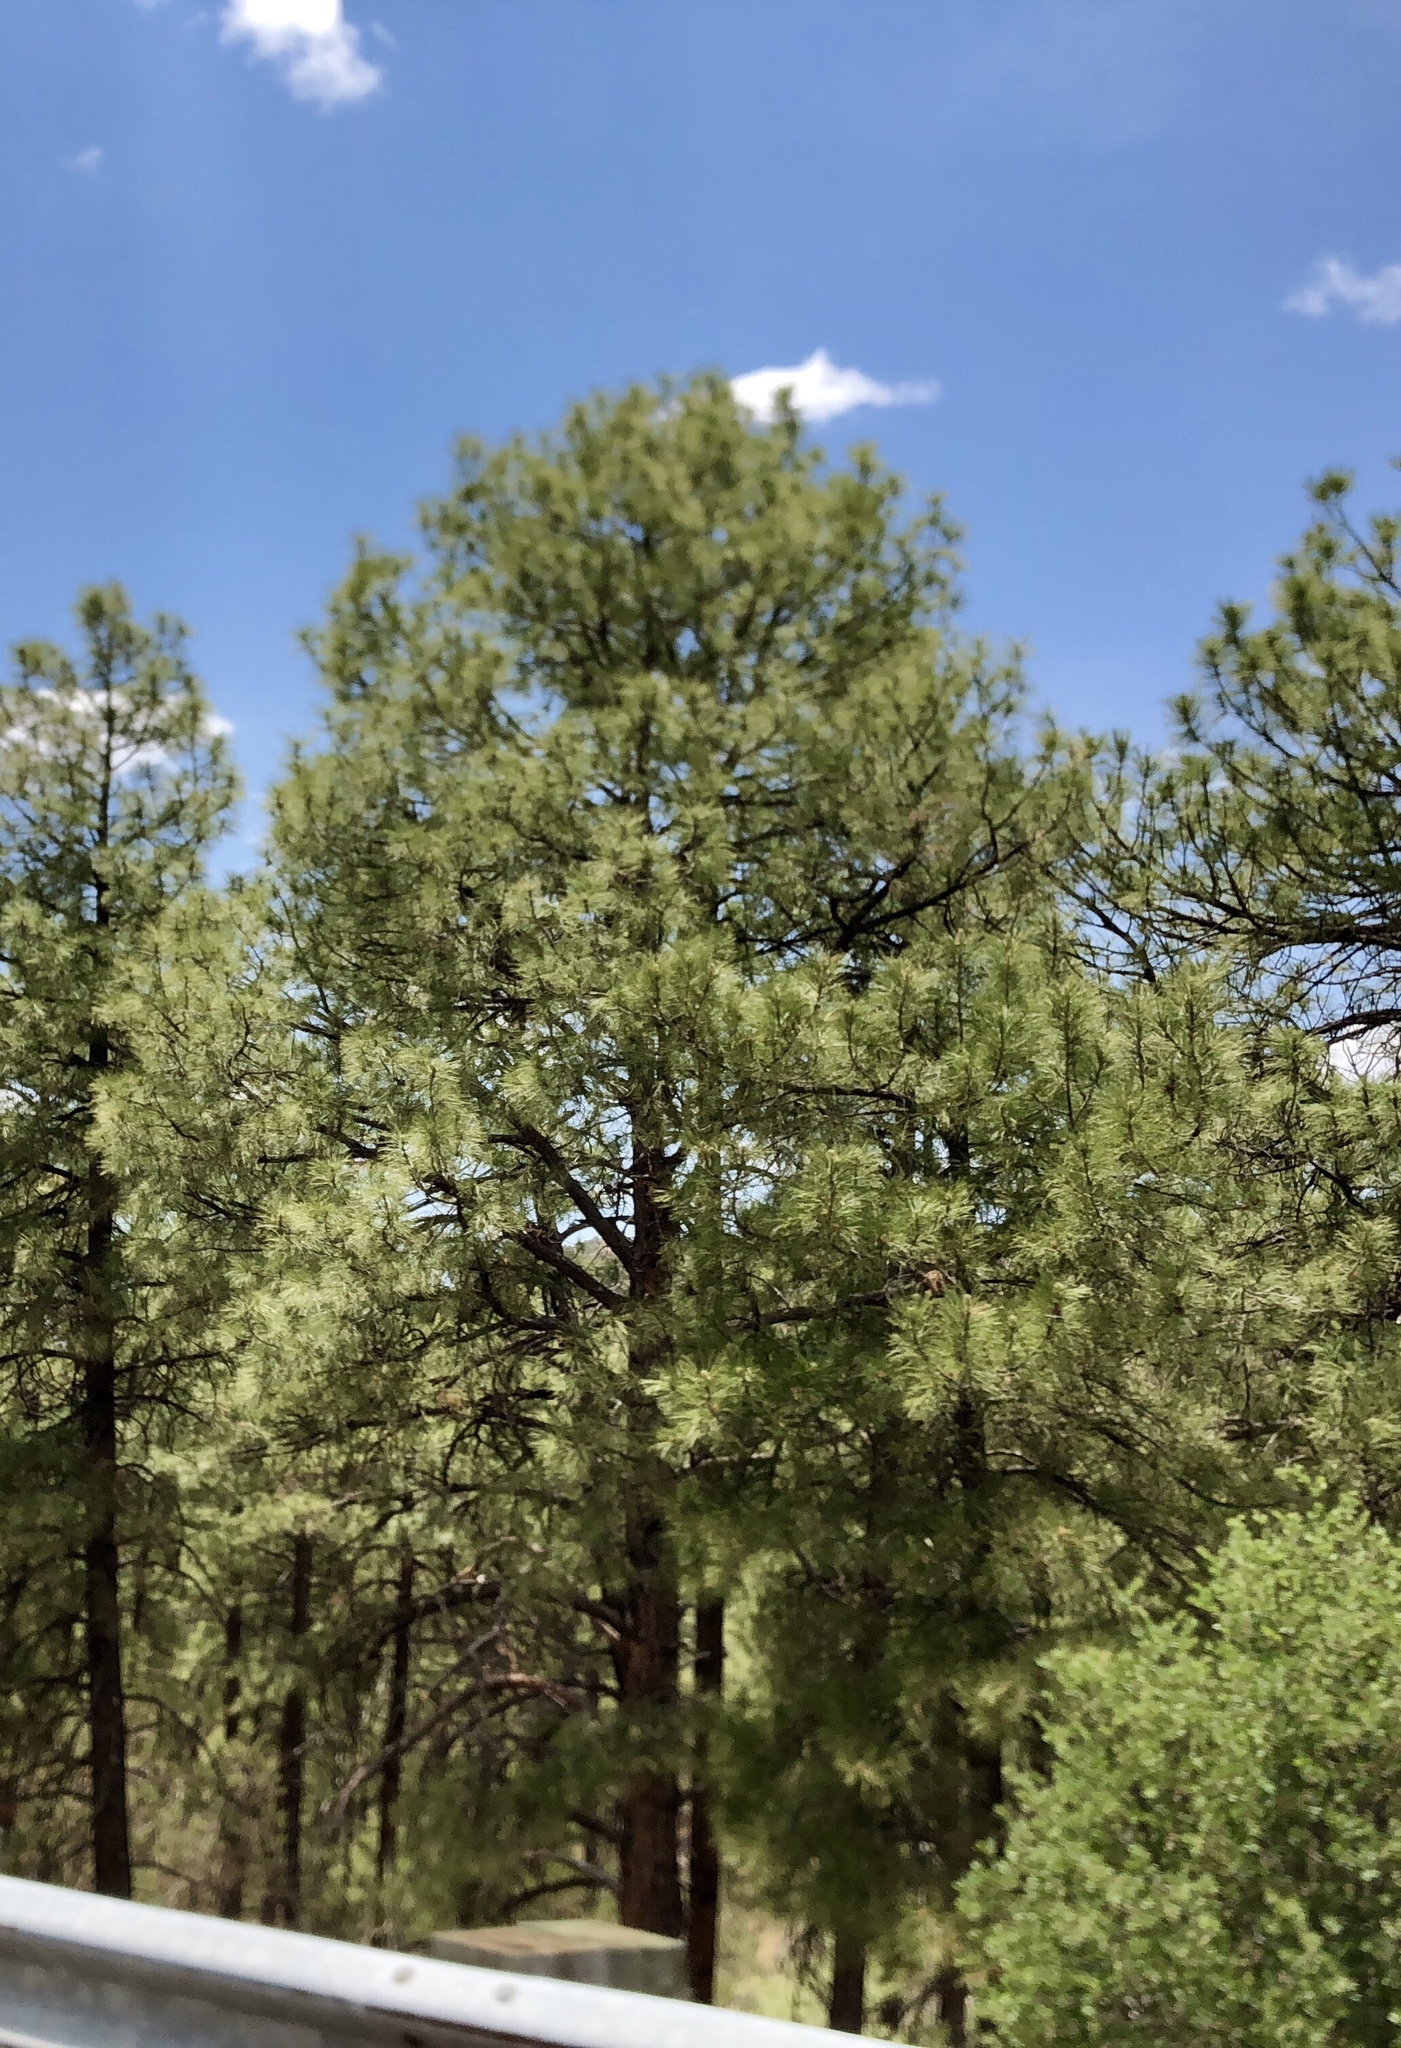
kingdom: Plantae
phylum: Tracheophyta
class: Pinopsida
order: Pinales
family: Pinaceae
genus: Pinus
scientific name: Pinus ponderosa
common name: Western yellow-pine
